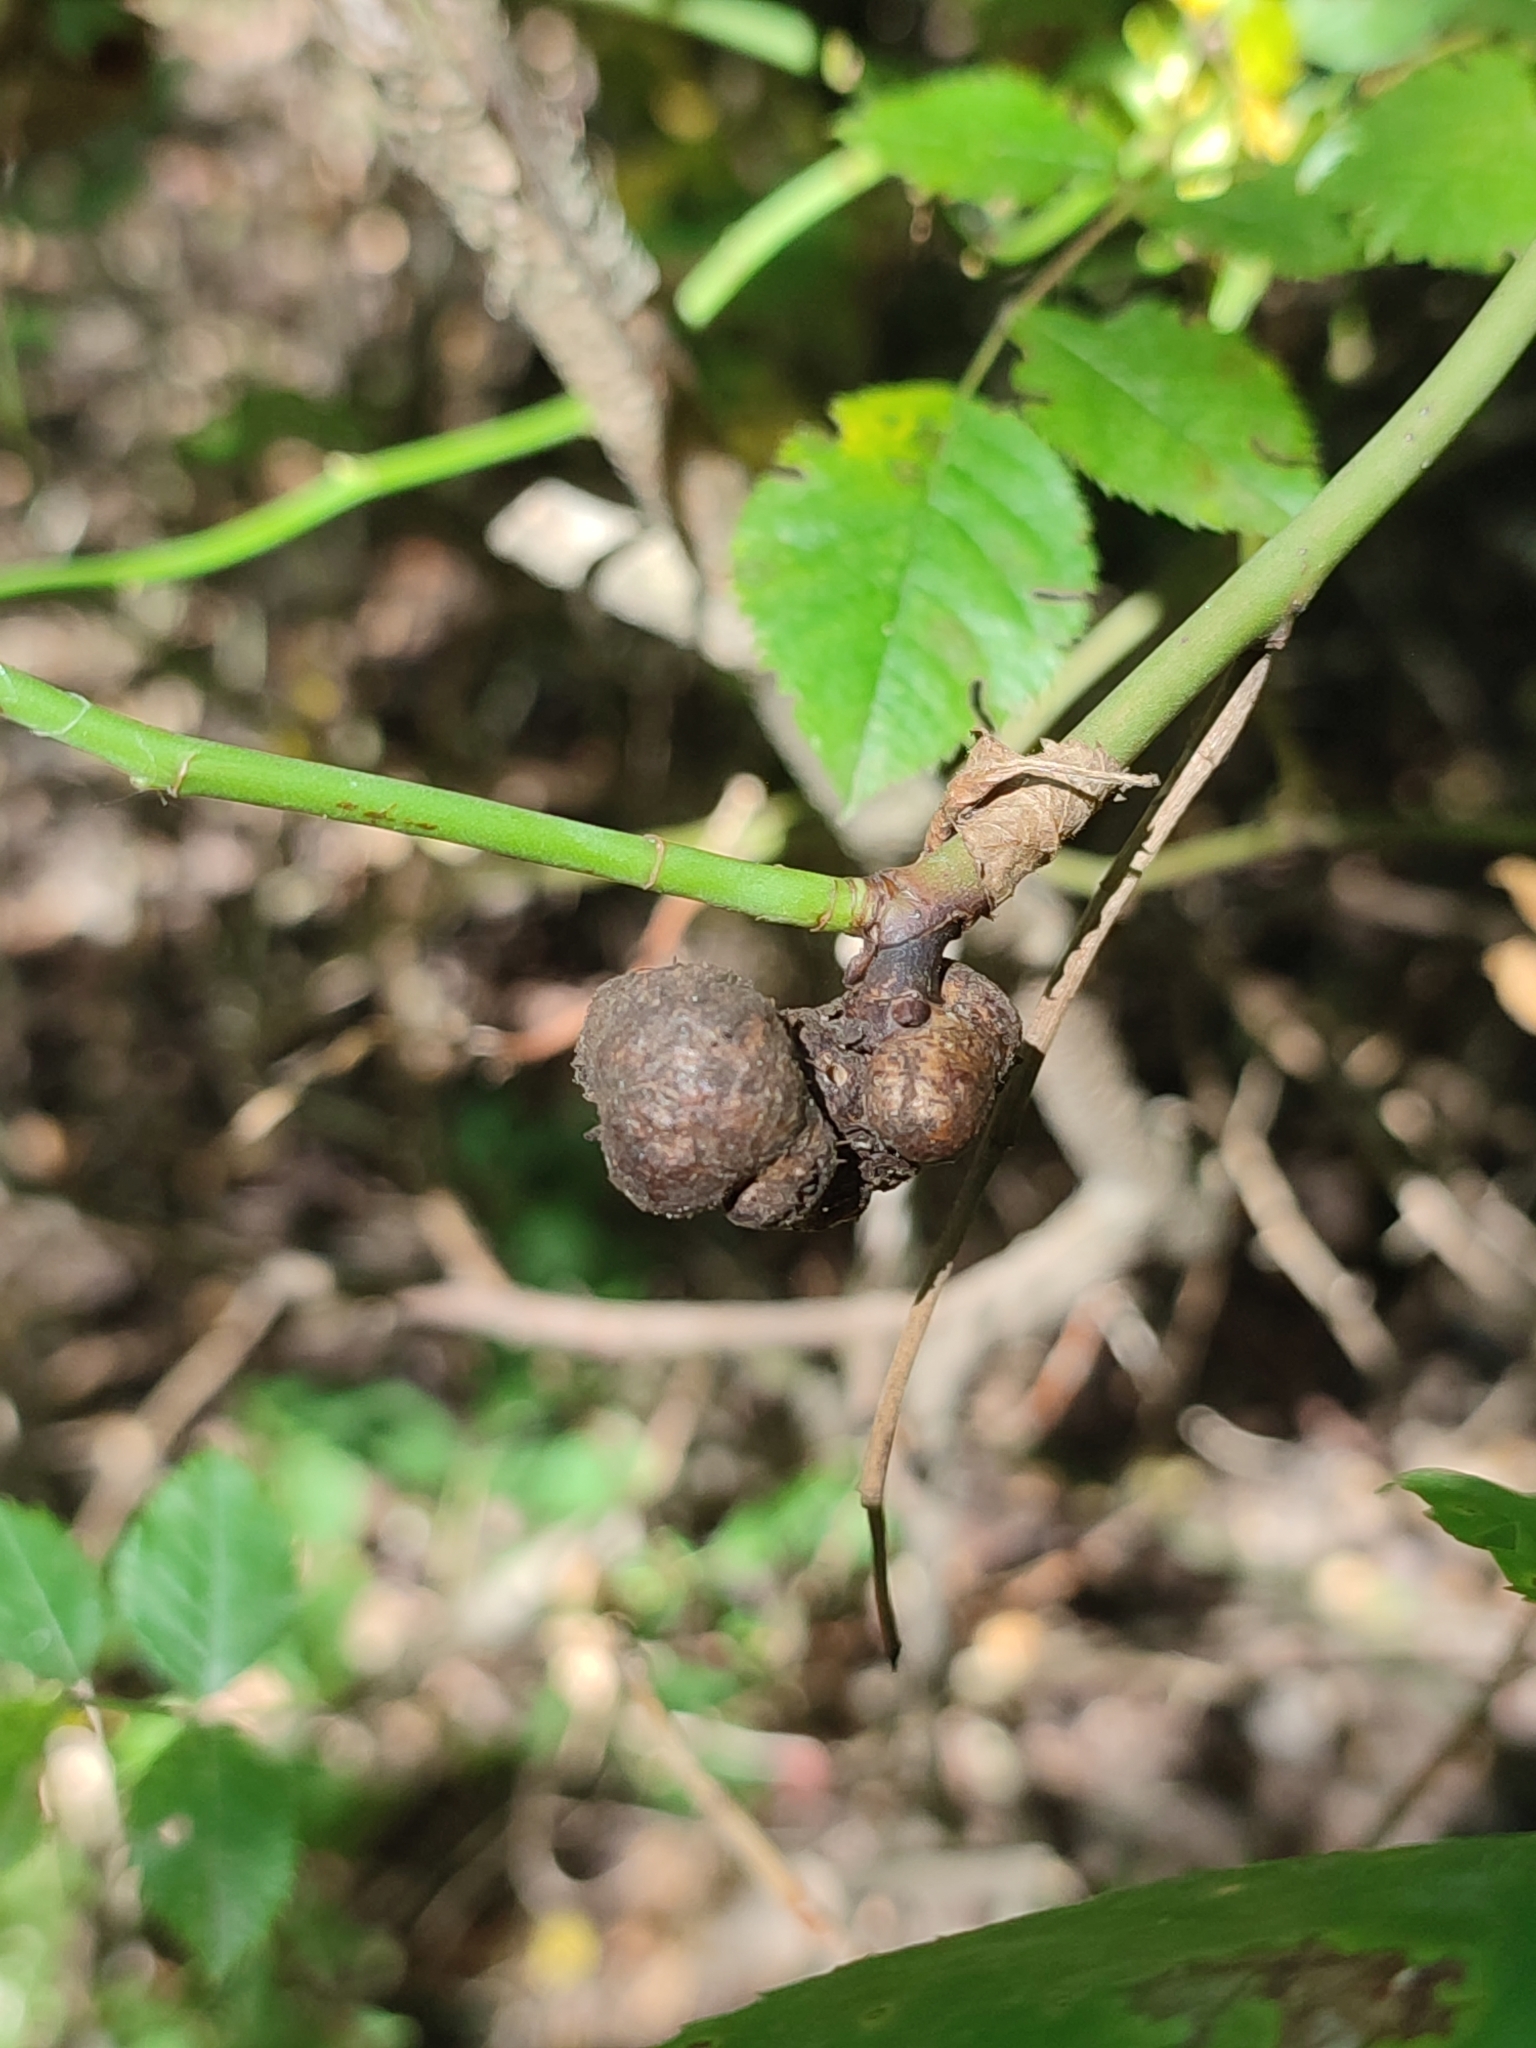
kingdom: Animalia
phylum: Arthropoda
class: Insecta
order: Hymenoptera
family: Cynipidae
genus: Diplolepis
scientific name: Diplolepis mayri
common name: Gall wasp
